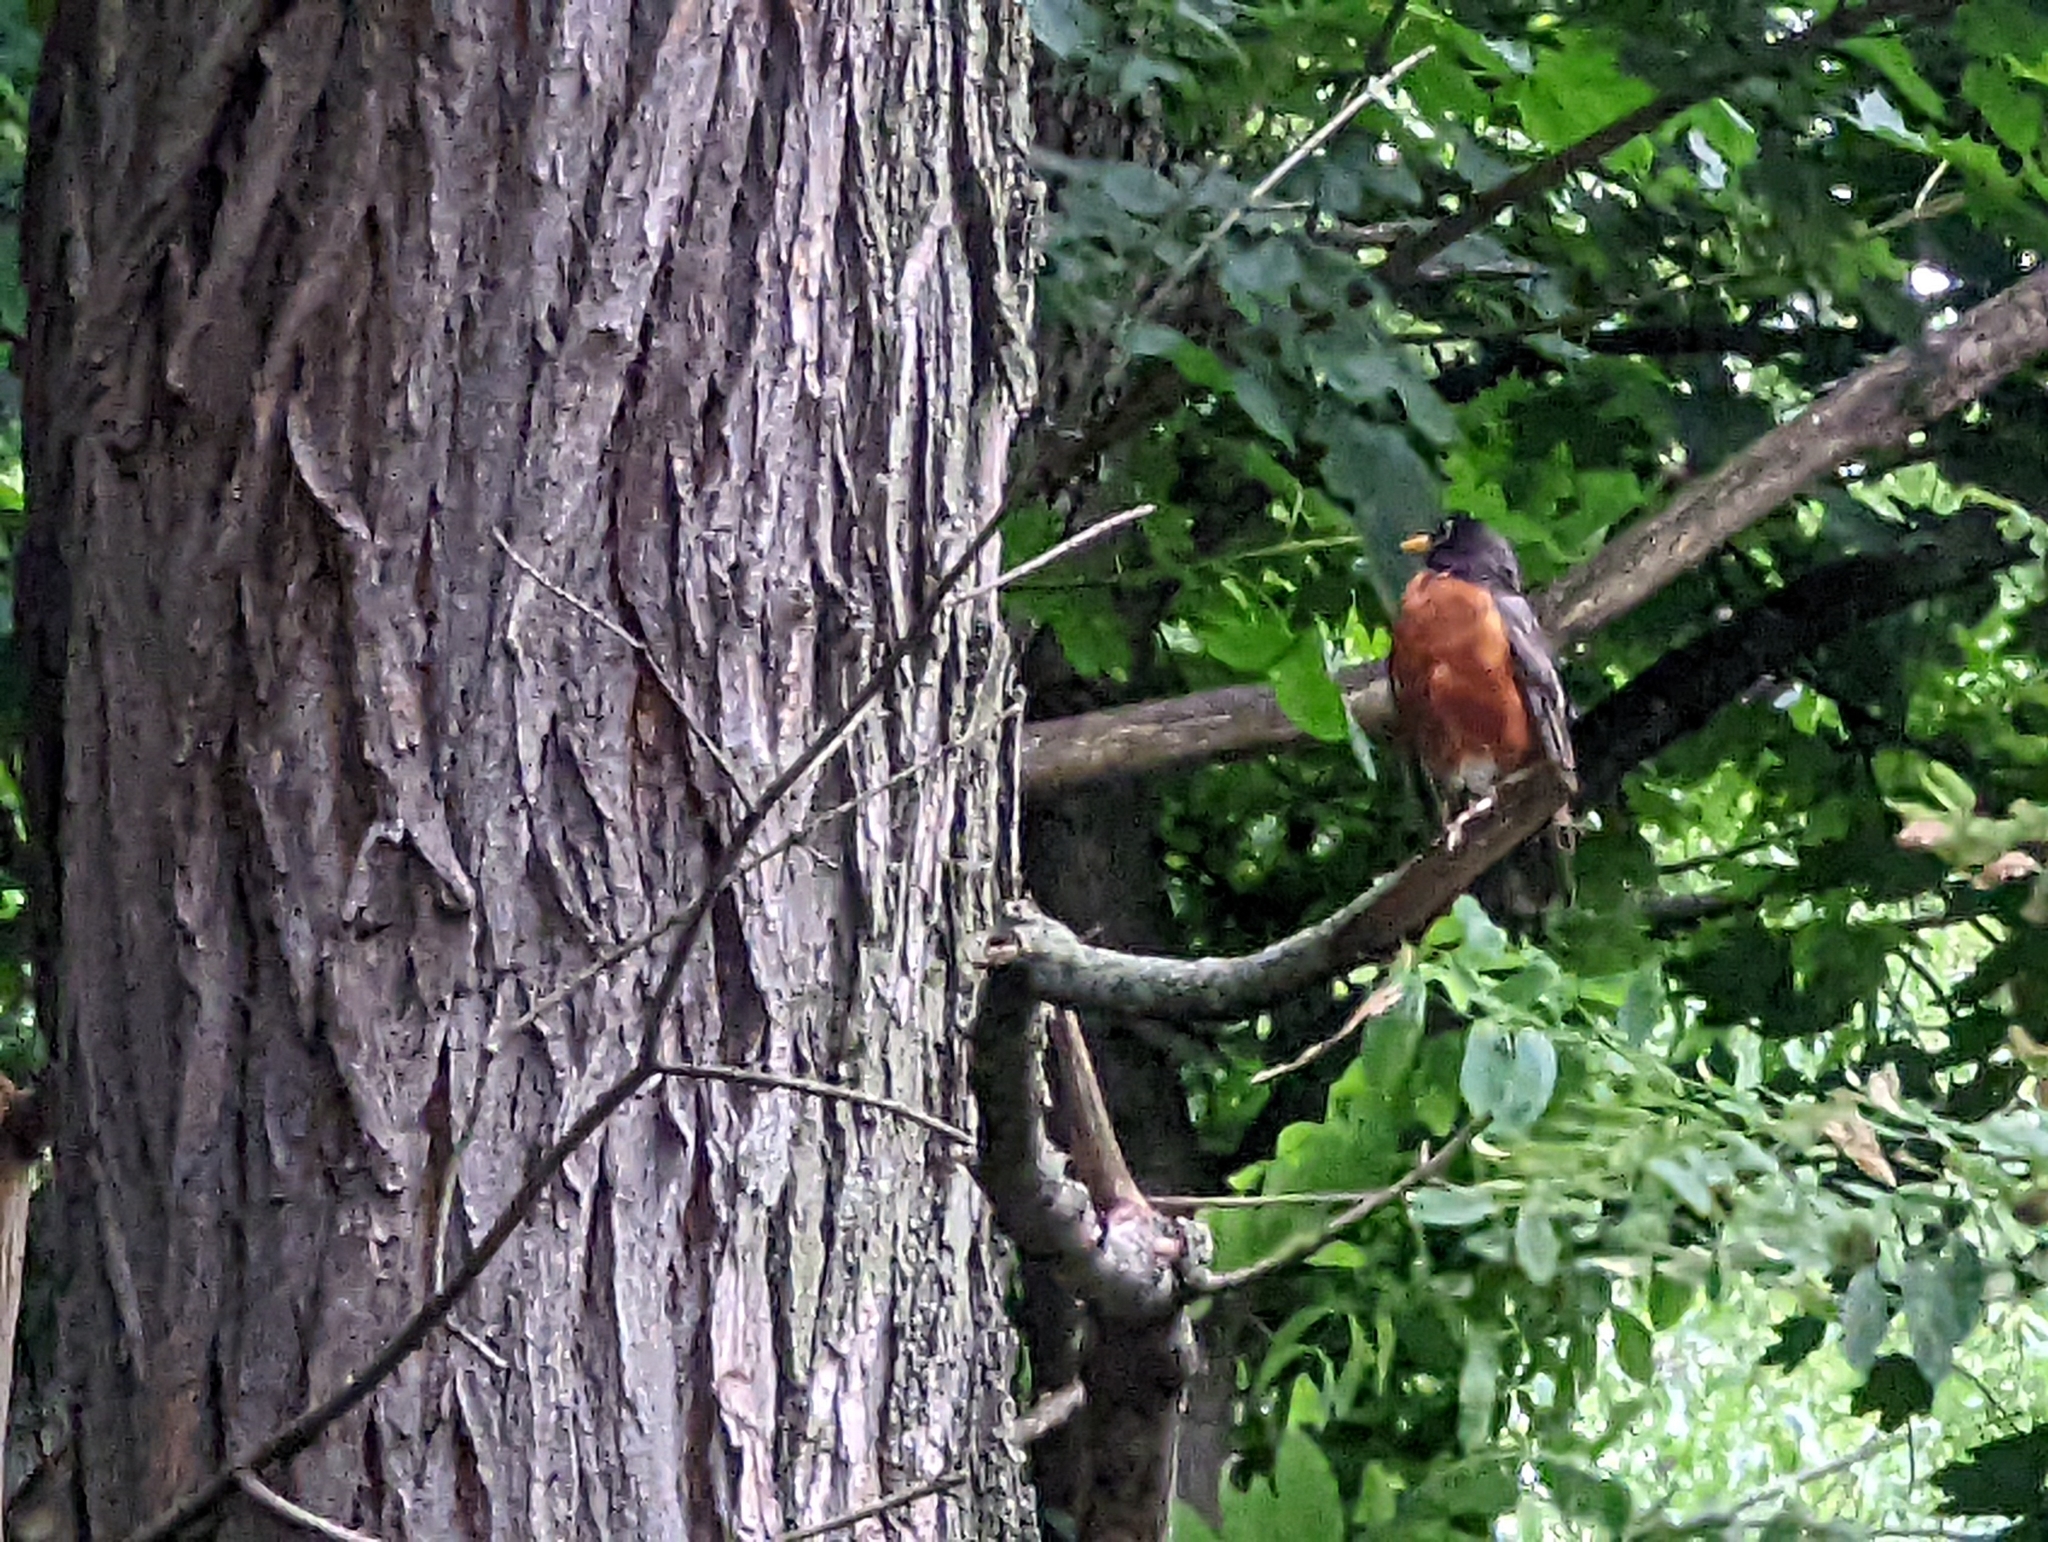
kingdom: Animalia
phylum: Chordata
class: Aves
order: Passeriformes
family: Turdidae
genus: Turdus
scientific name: Turdus migratorius
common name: American robin
